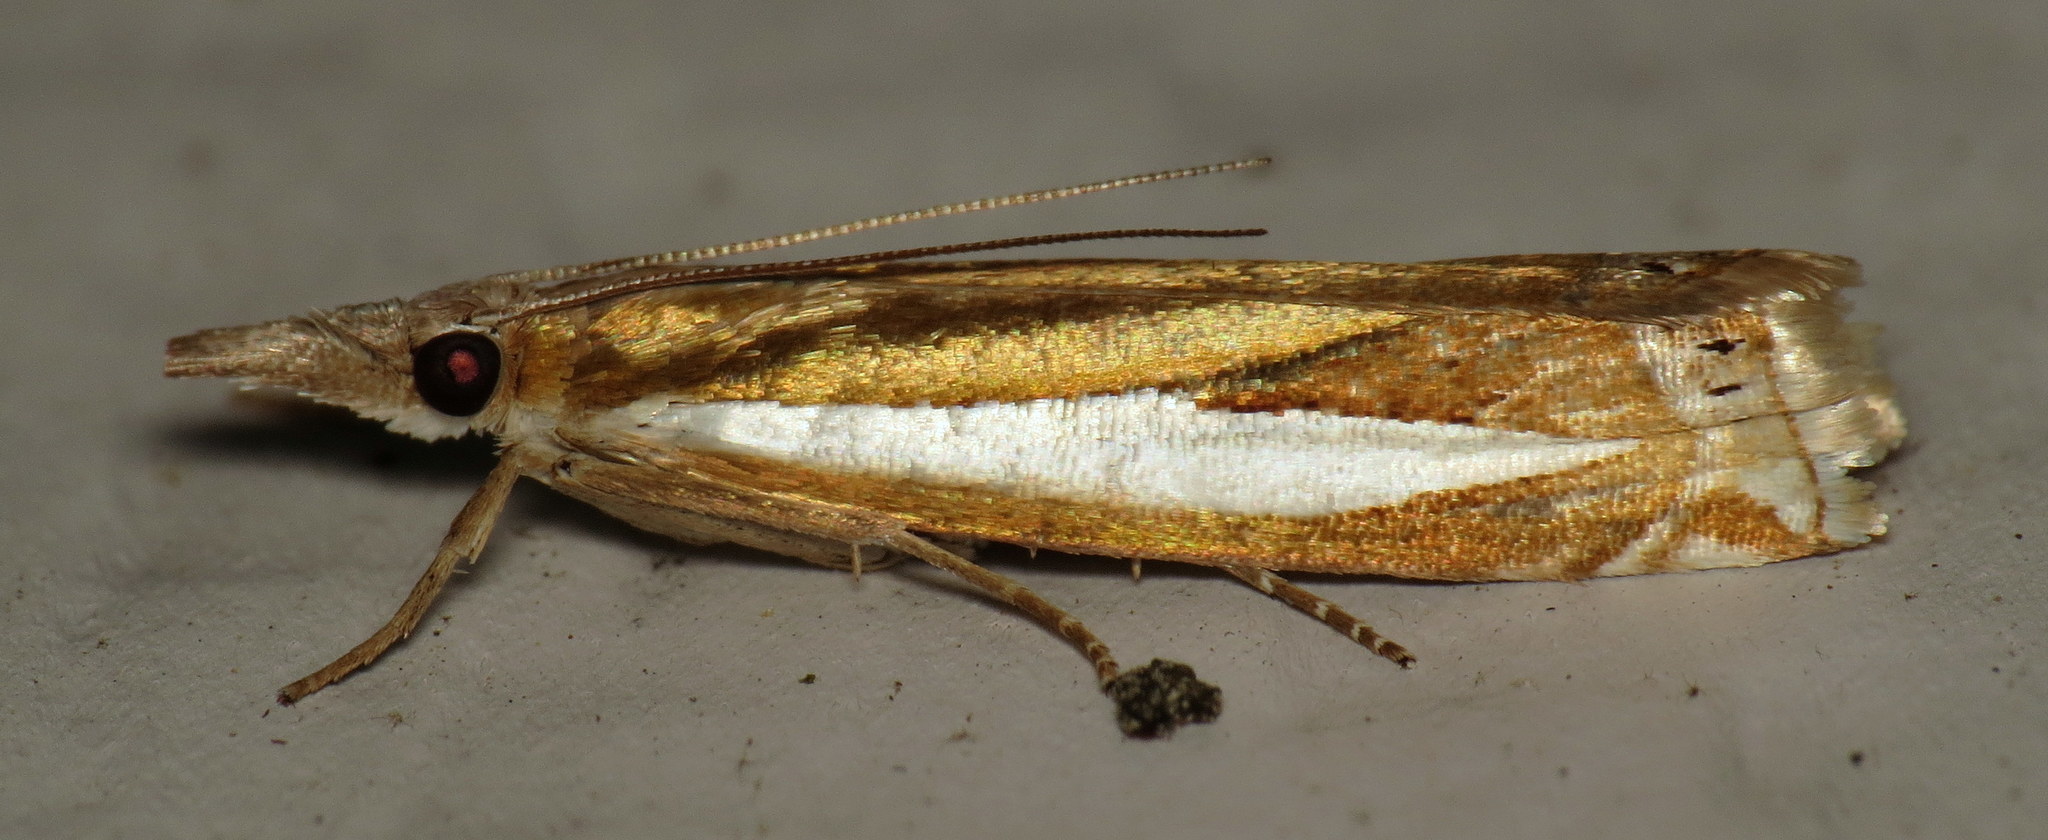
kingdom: Animalia
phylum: Arthropoda
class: Insecta
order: Lepidoptera
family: Crambidae
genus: Crambus
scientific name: Crambus praefectellus
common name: Common grass-veneer
